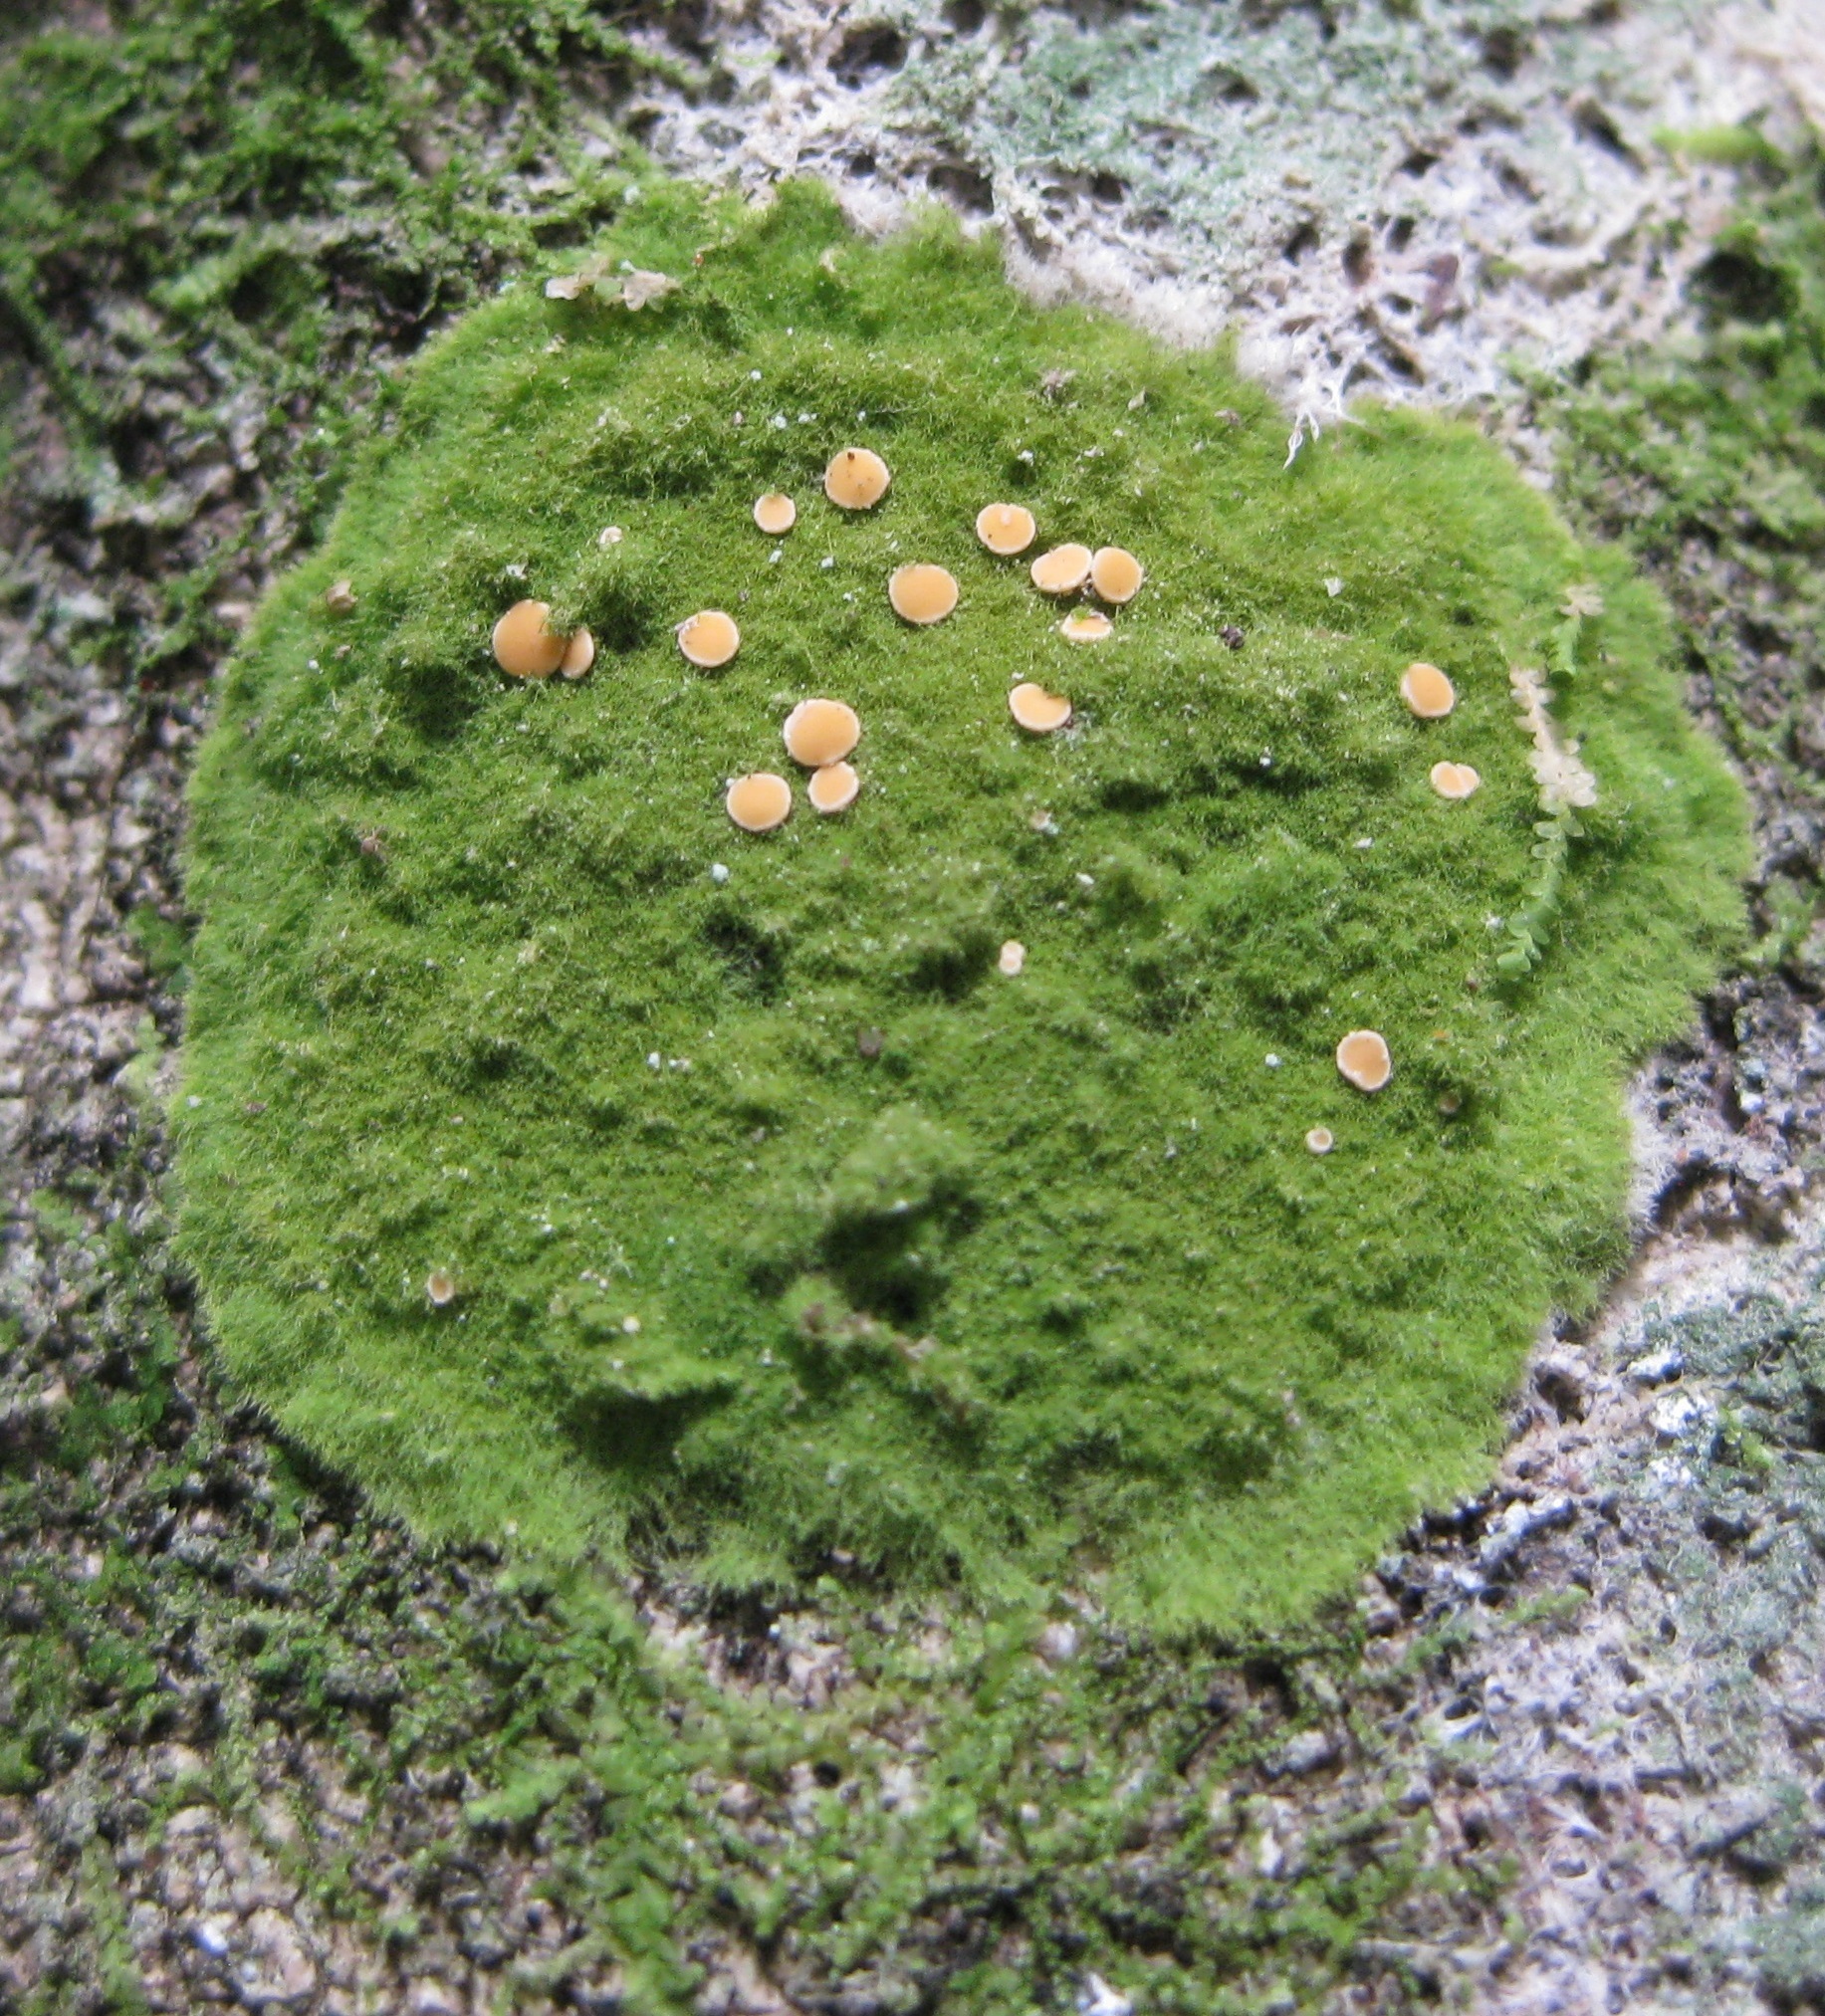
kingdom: Fungi
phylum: Ascomycota
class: Lecanoromycetes
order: Ostropales
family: Coenogoniaceae
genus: Coenogonium
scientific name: Coenogonium implexum
